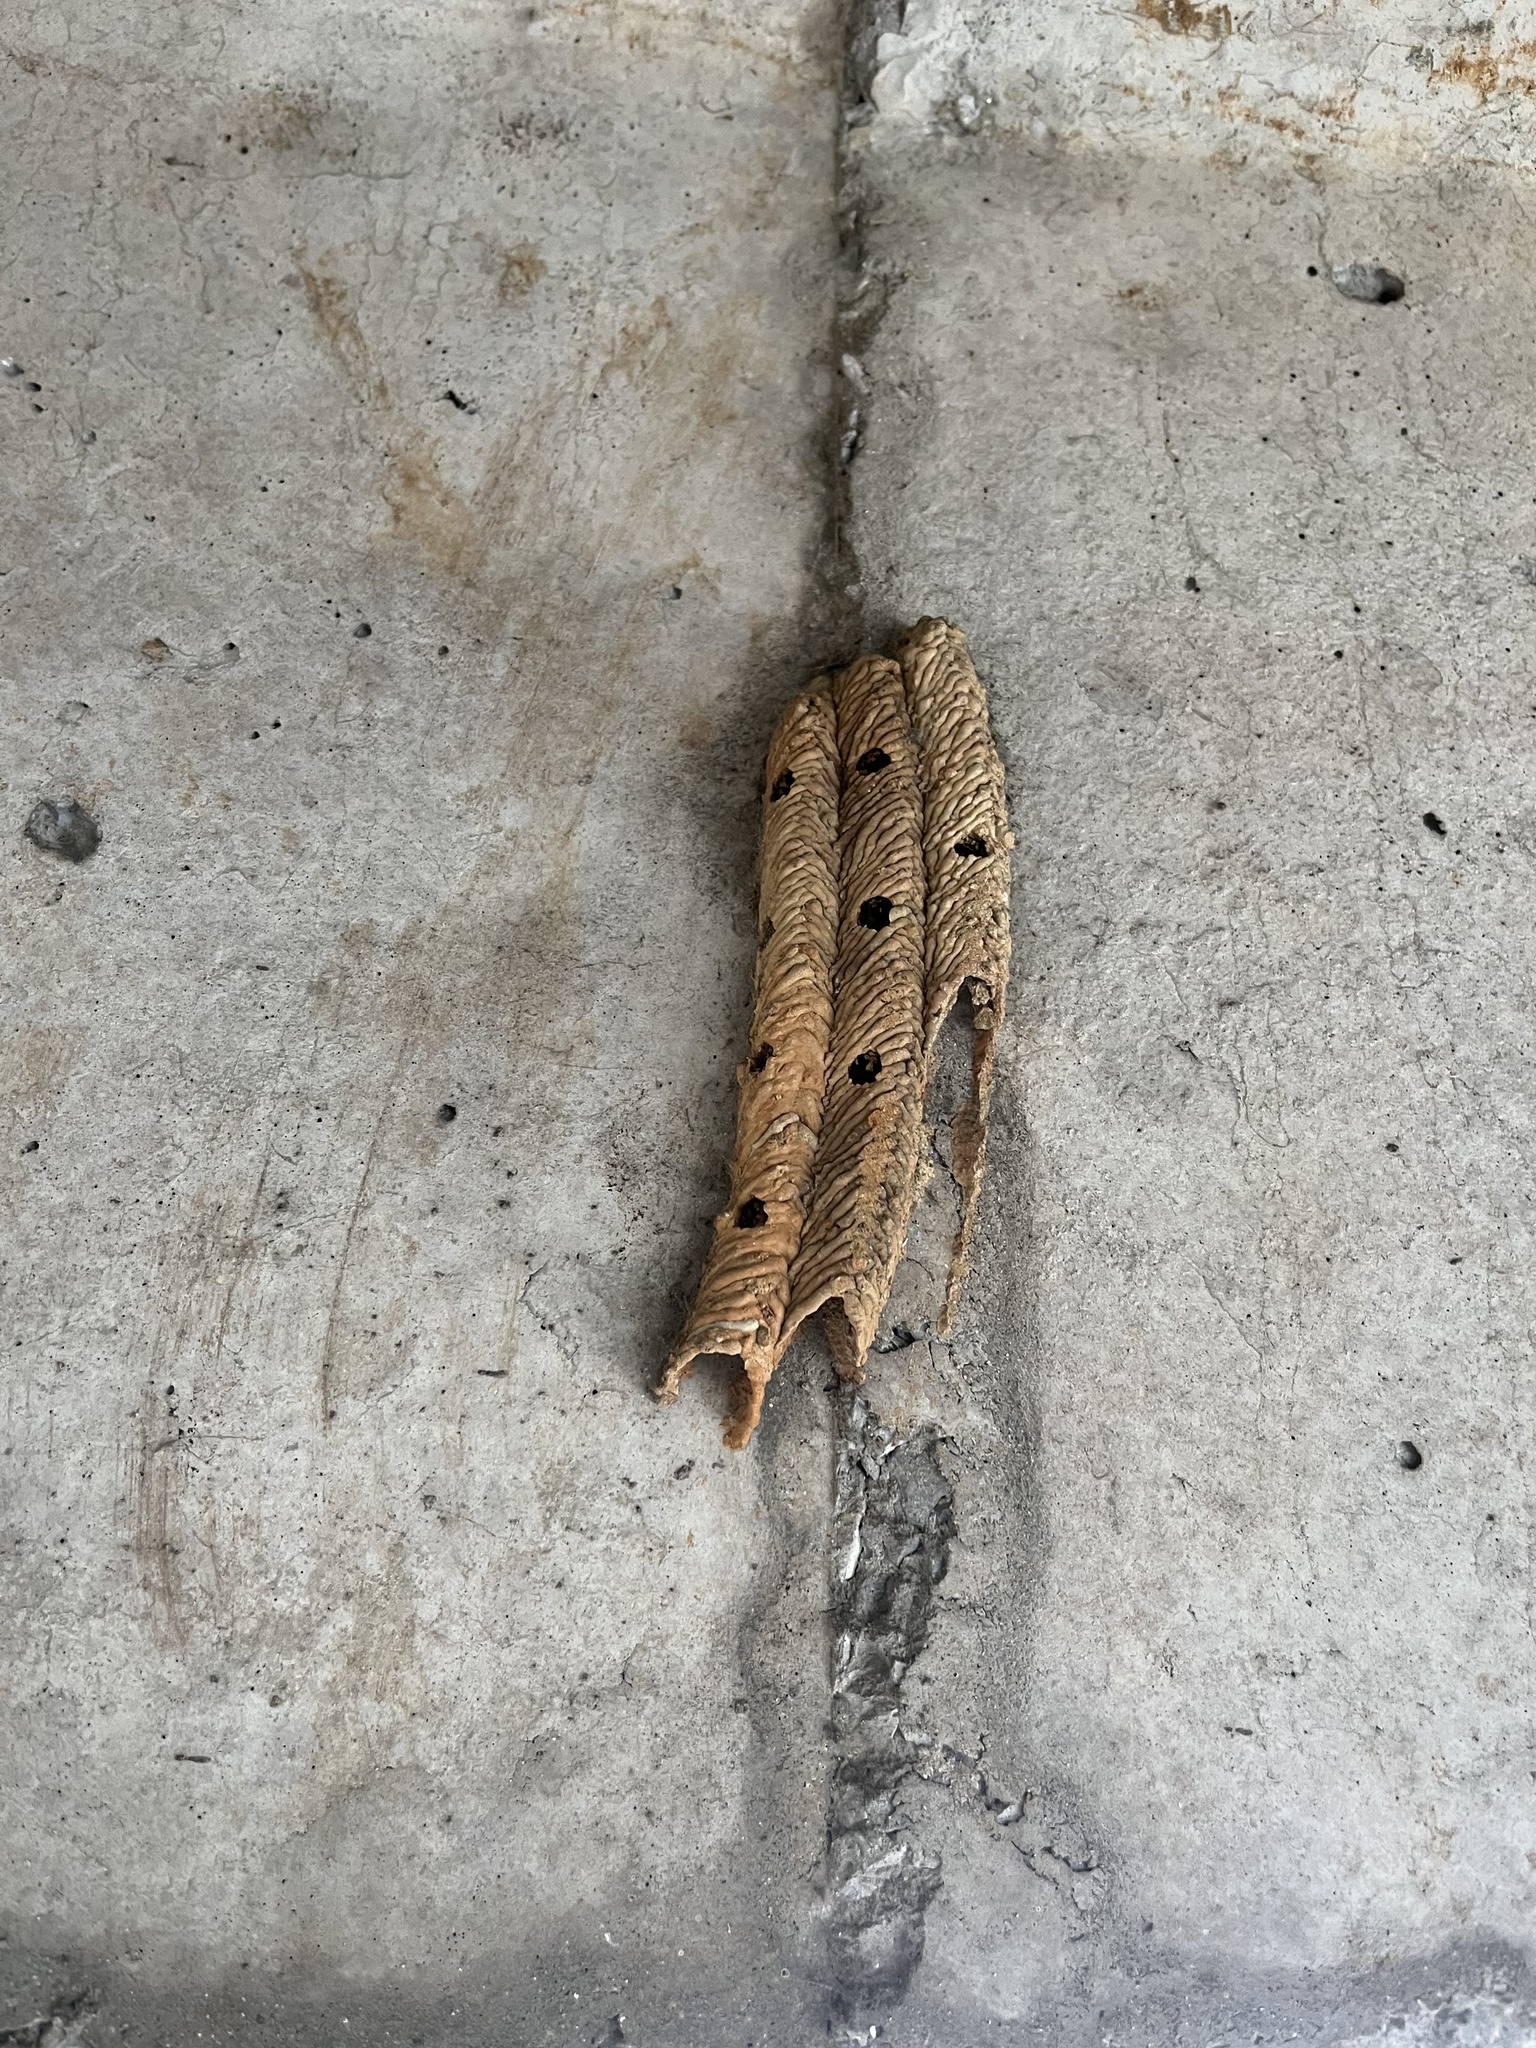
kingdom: Animalia
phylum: Arthropoda
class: Insecta
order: Hymenoptera
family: Crabronidae
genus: Trypoxylon
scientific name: Trypoxylon politum
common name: Organ-pipe mud-dauber wasp
